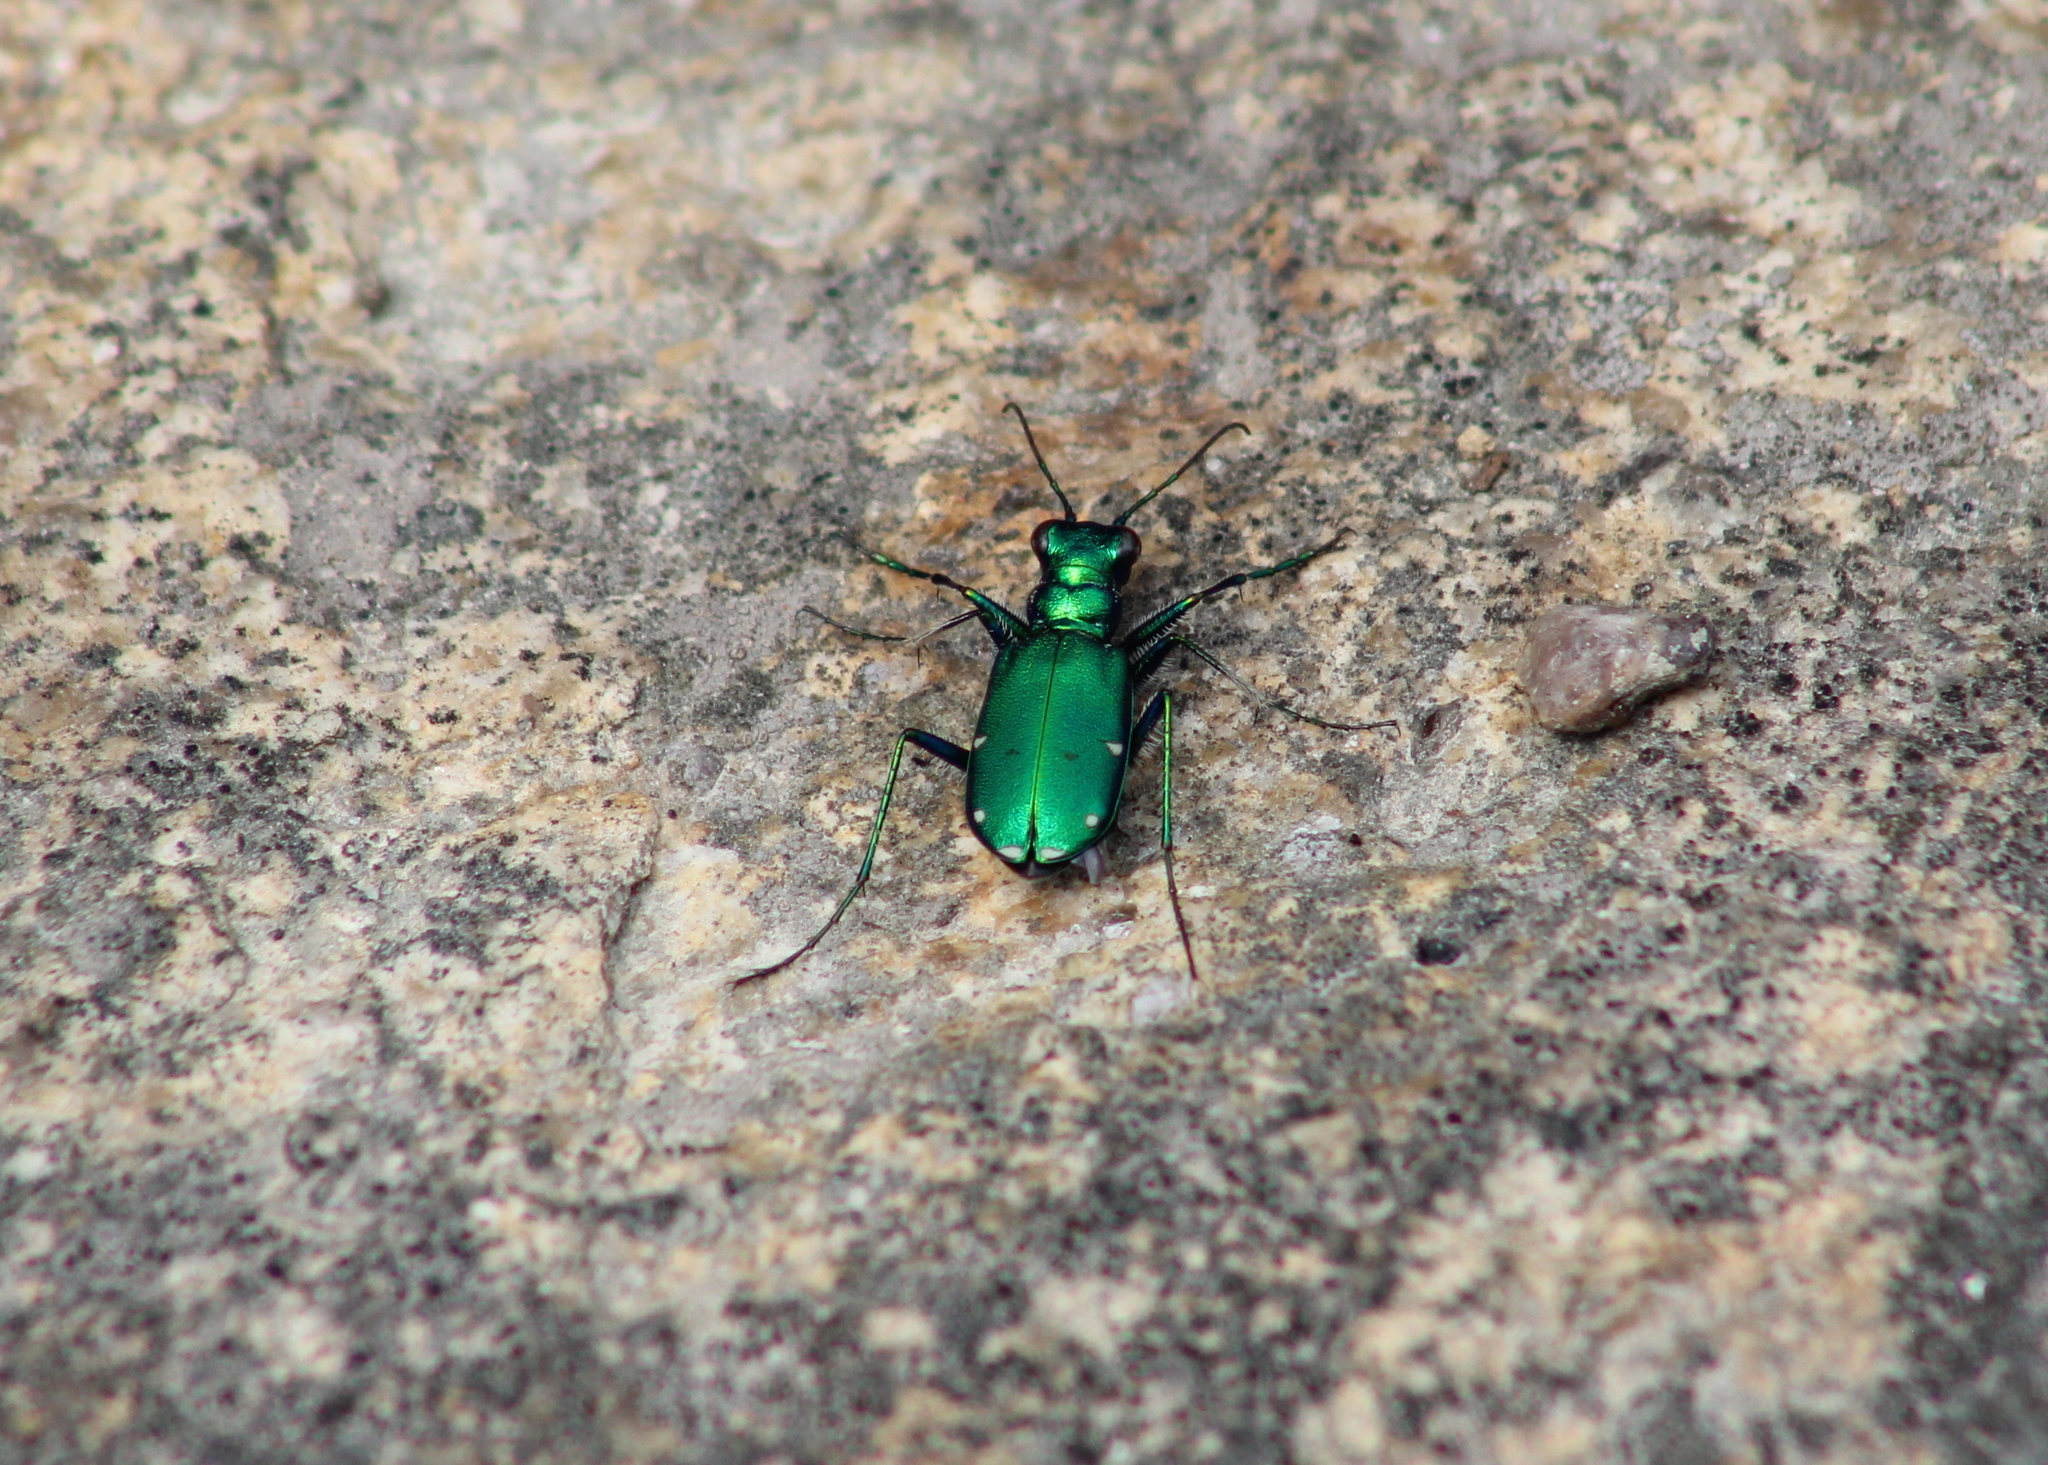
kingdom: Animalia
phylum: Arthropoda
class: Insecta
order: Coleoptera
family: Carabidae
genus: Cicindela
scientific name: Cicindela sexguttata
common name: Six-spotted tiger beetle
